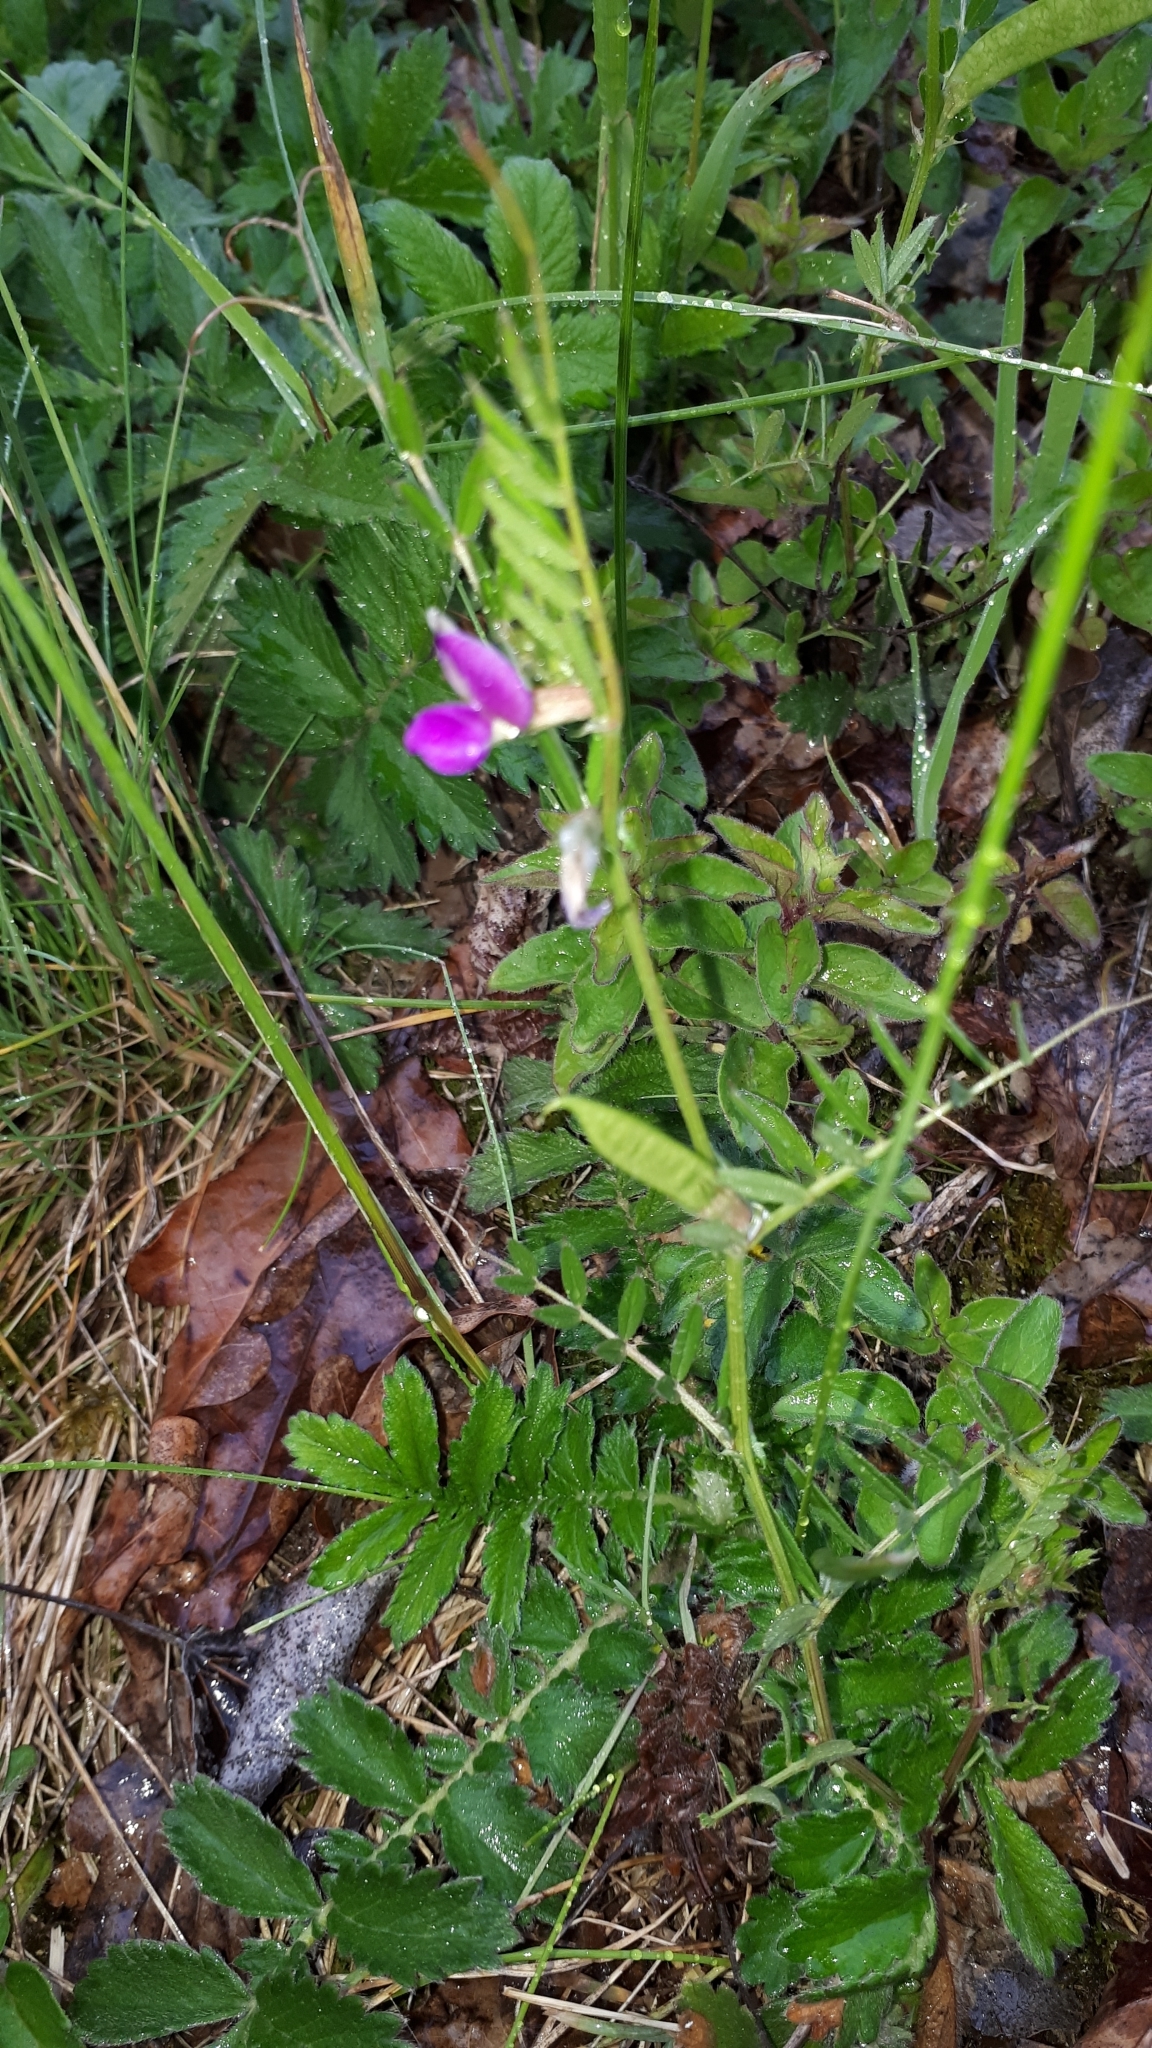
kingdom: Plantae
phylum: Tracheophyta
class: Magnoliopsida
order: Fabales
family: Fabaceae
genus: Vicia
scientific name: Vicia sativa
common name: Garden vetch
